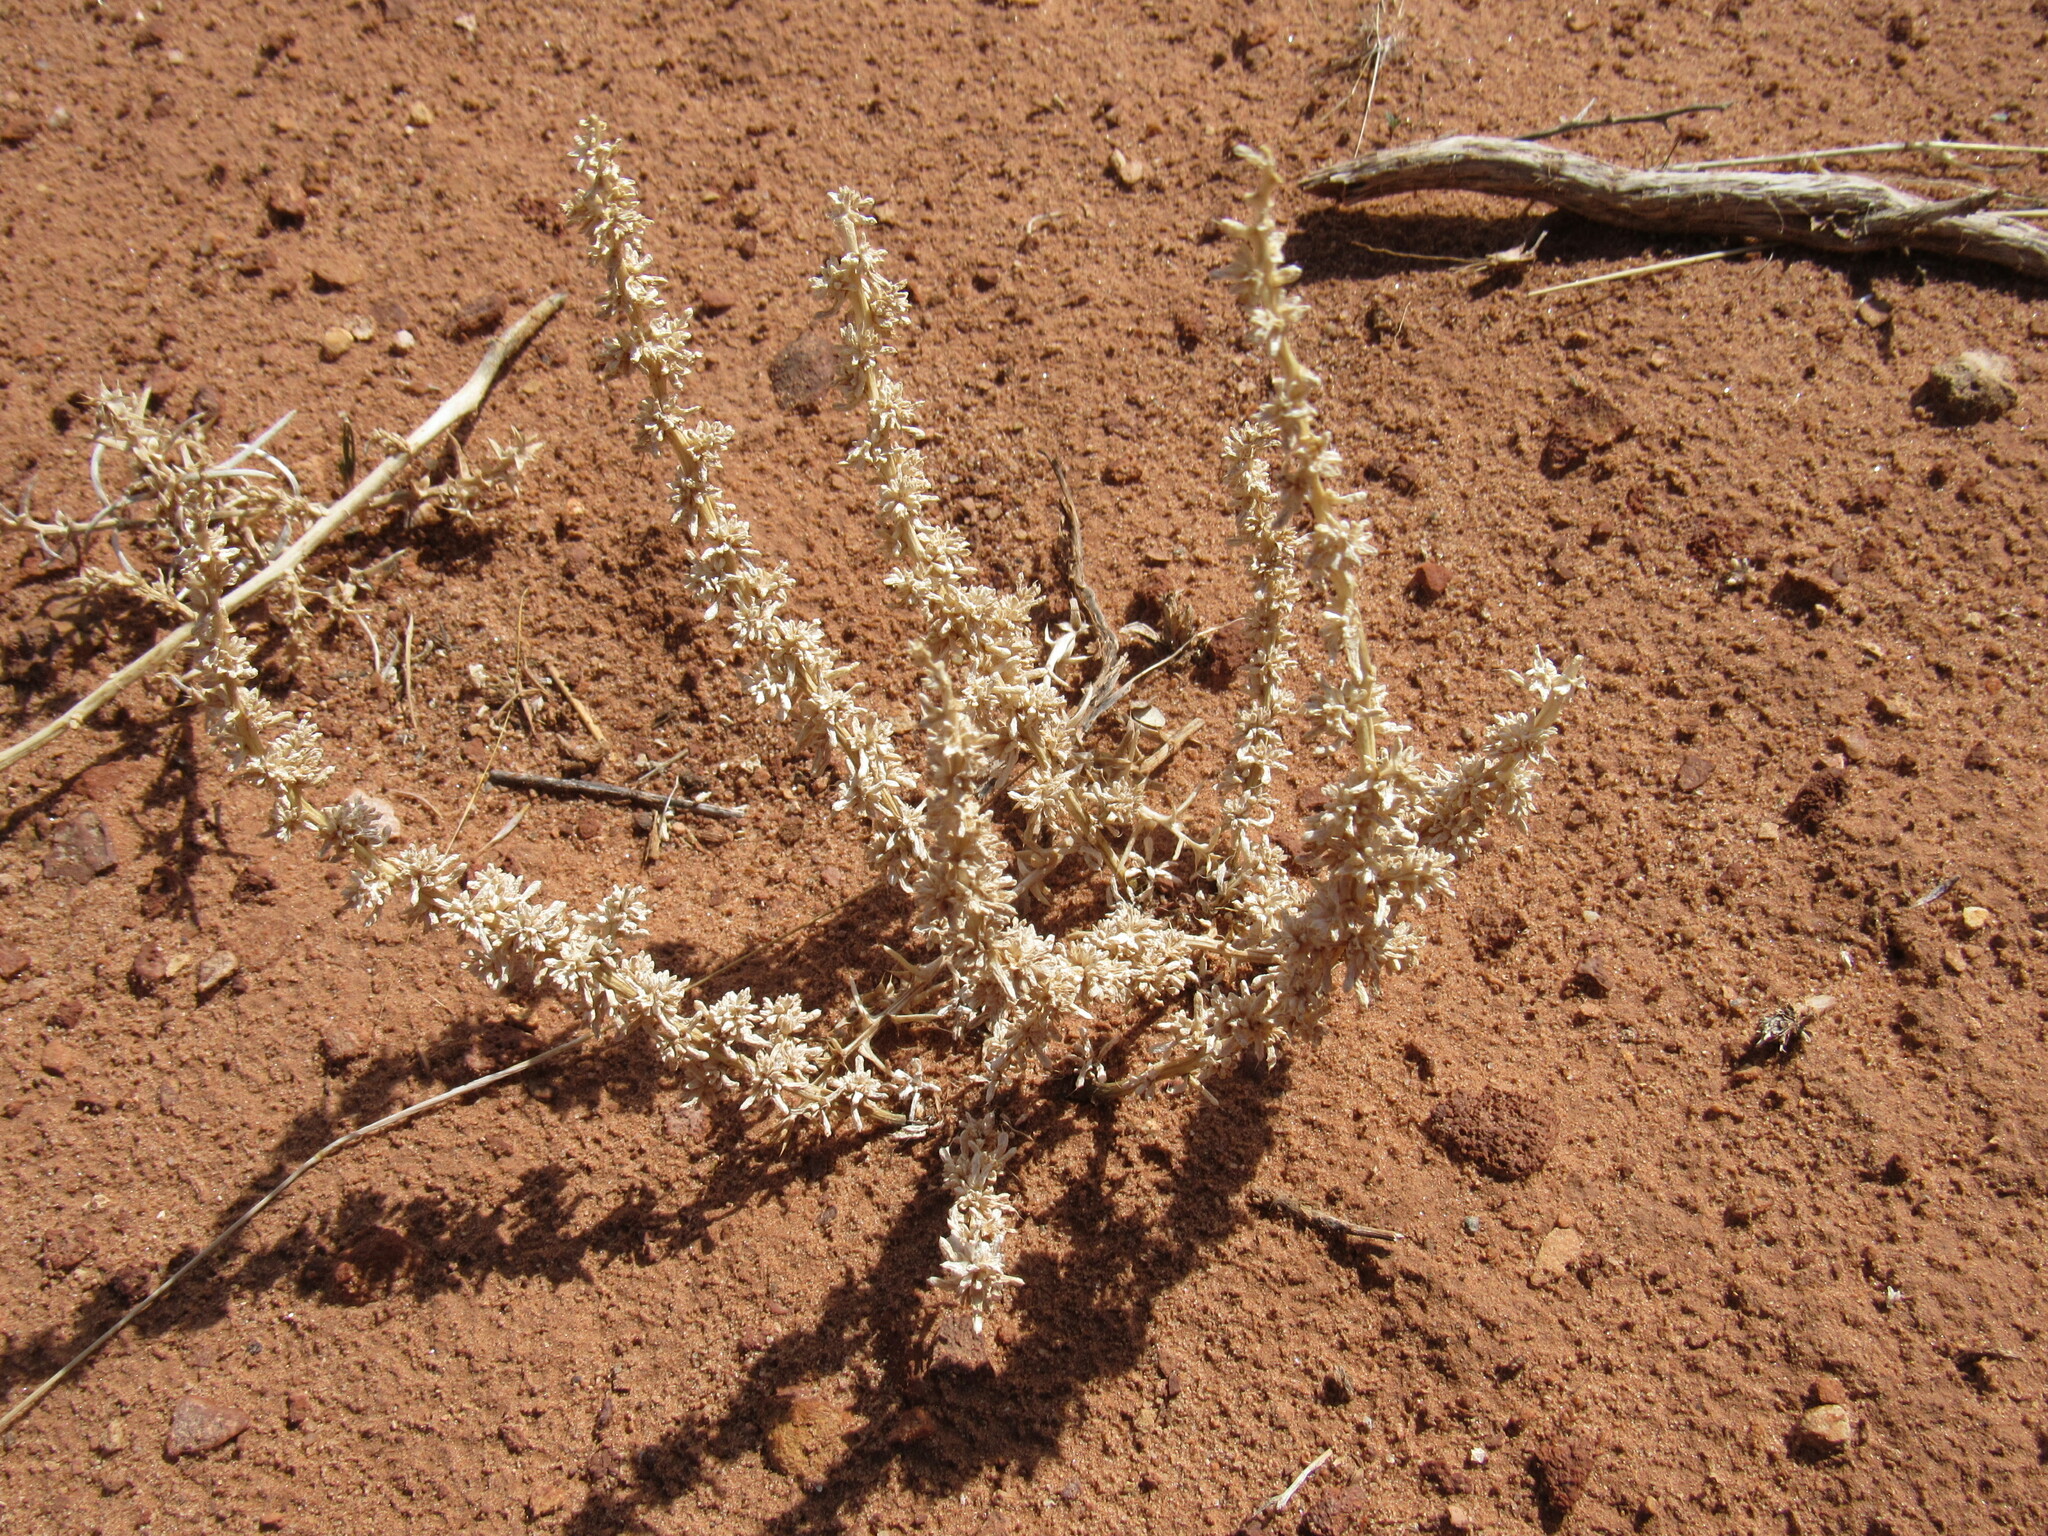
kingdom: Plantae
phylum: Tracheophyta
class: Magnoliopsida
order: Caryophyllales
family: Amaranthaceae
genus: Halogeton
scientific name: Halogeton glomeratus
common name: Saltlover
